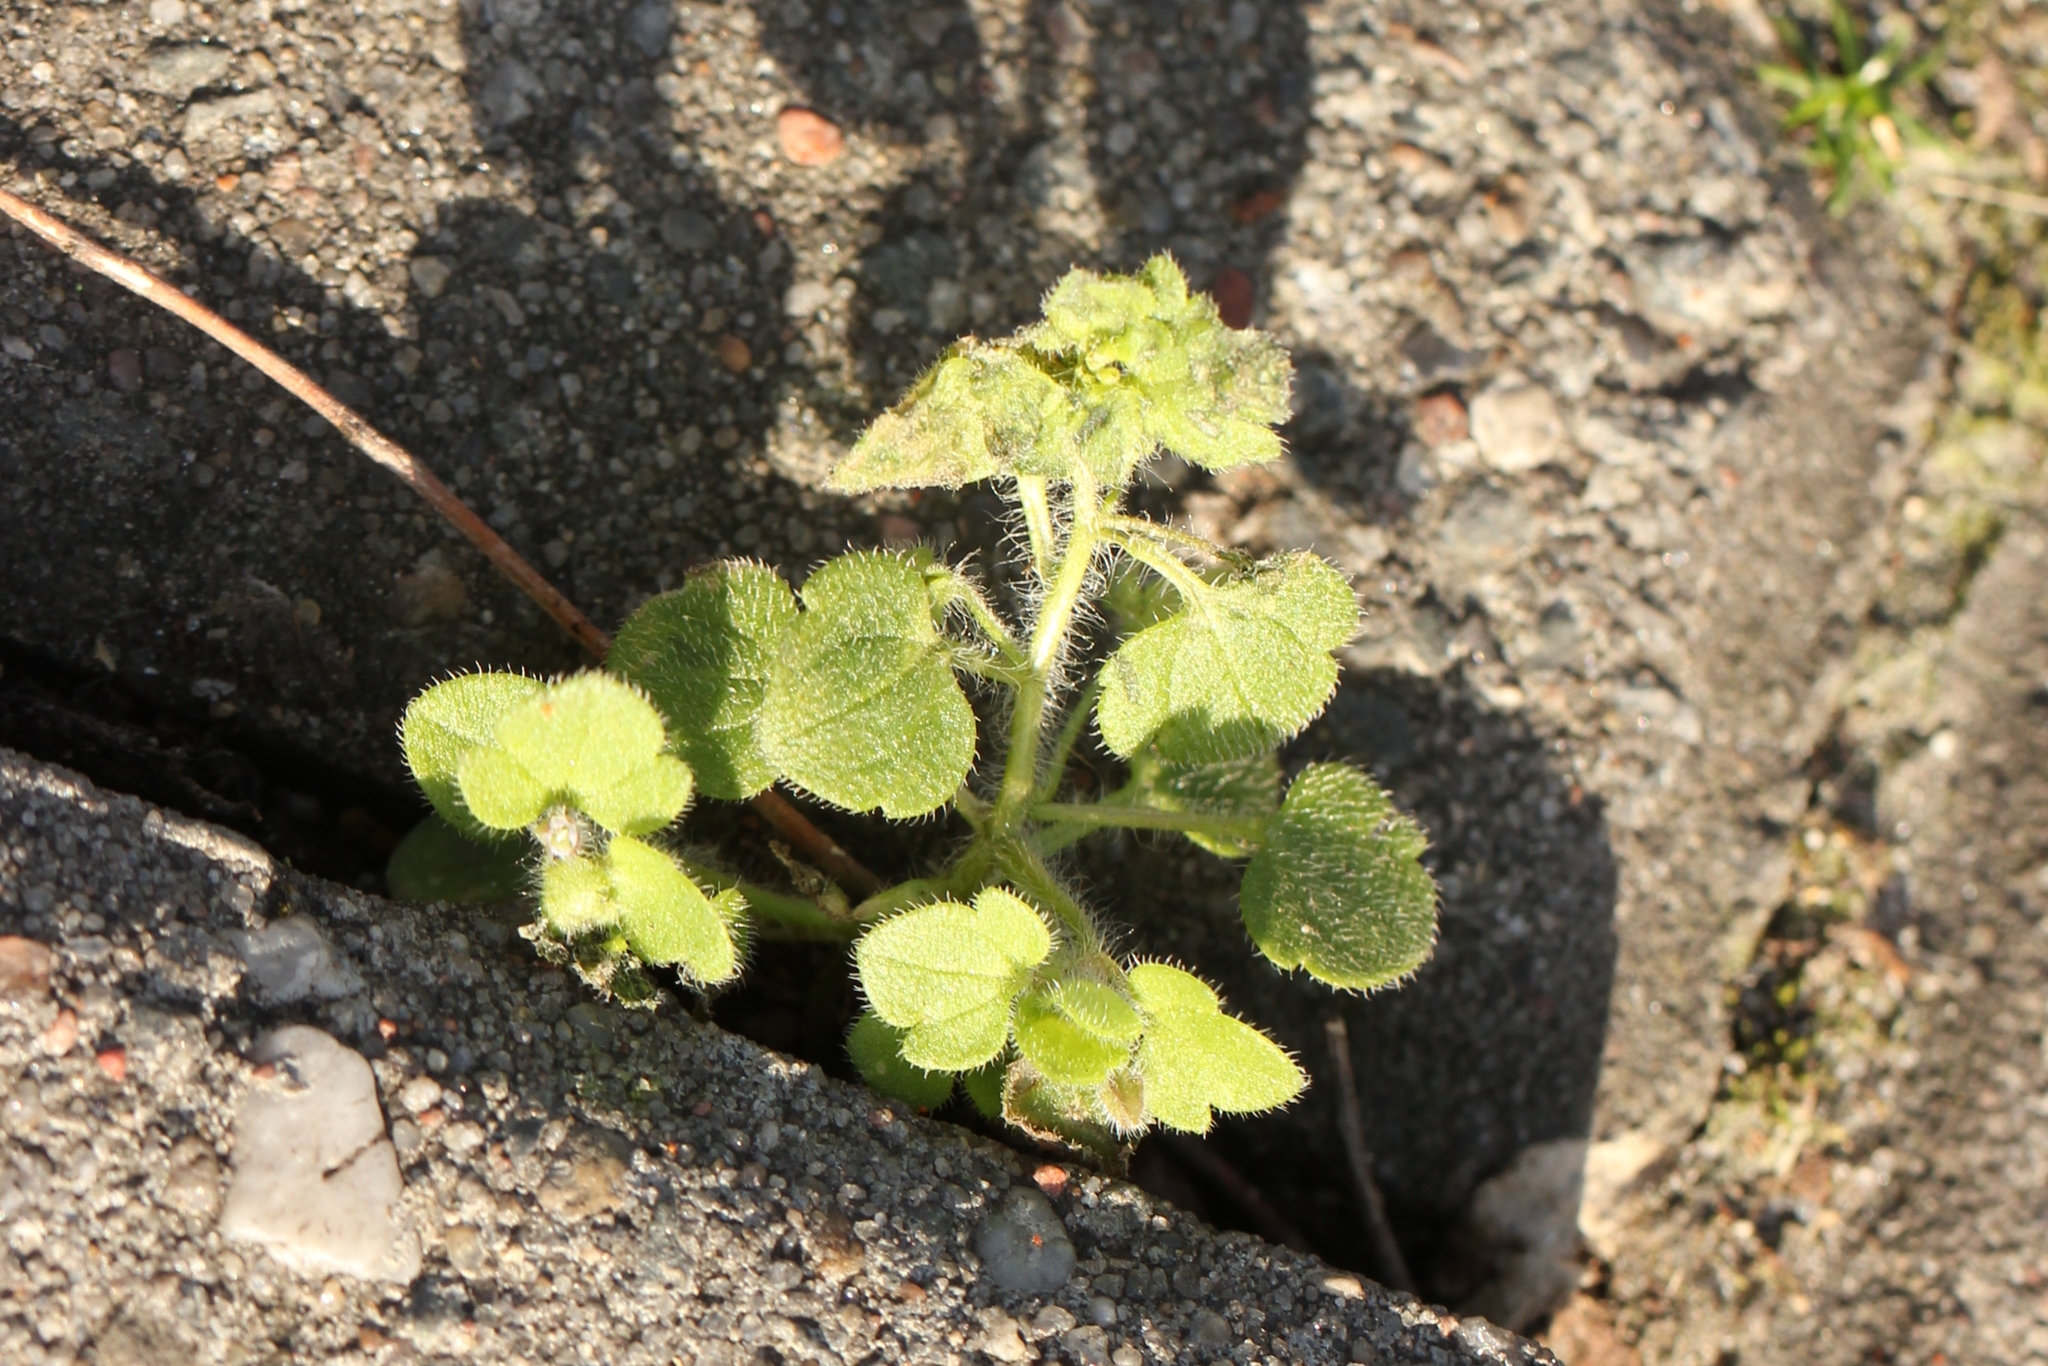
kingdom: Plantae
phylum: Tracheophyta
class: Magnoliopsida
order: Lamiales
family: Plantaginaceae
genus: Veronica
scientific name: Veronica sublobata
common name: False ivy-leaved speedwell
